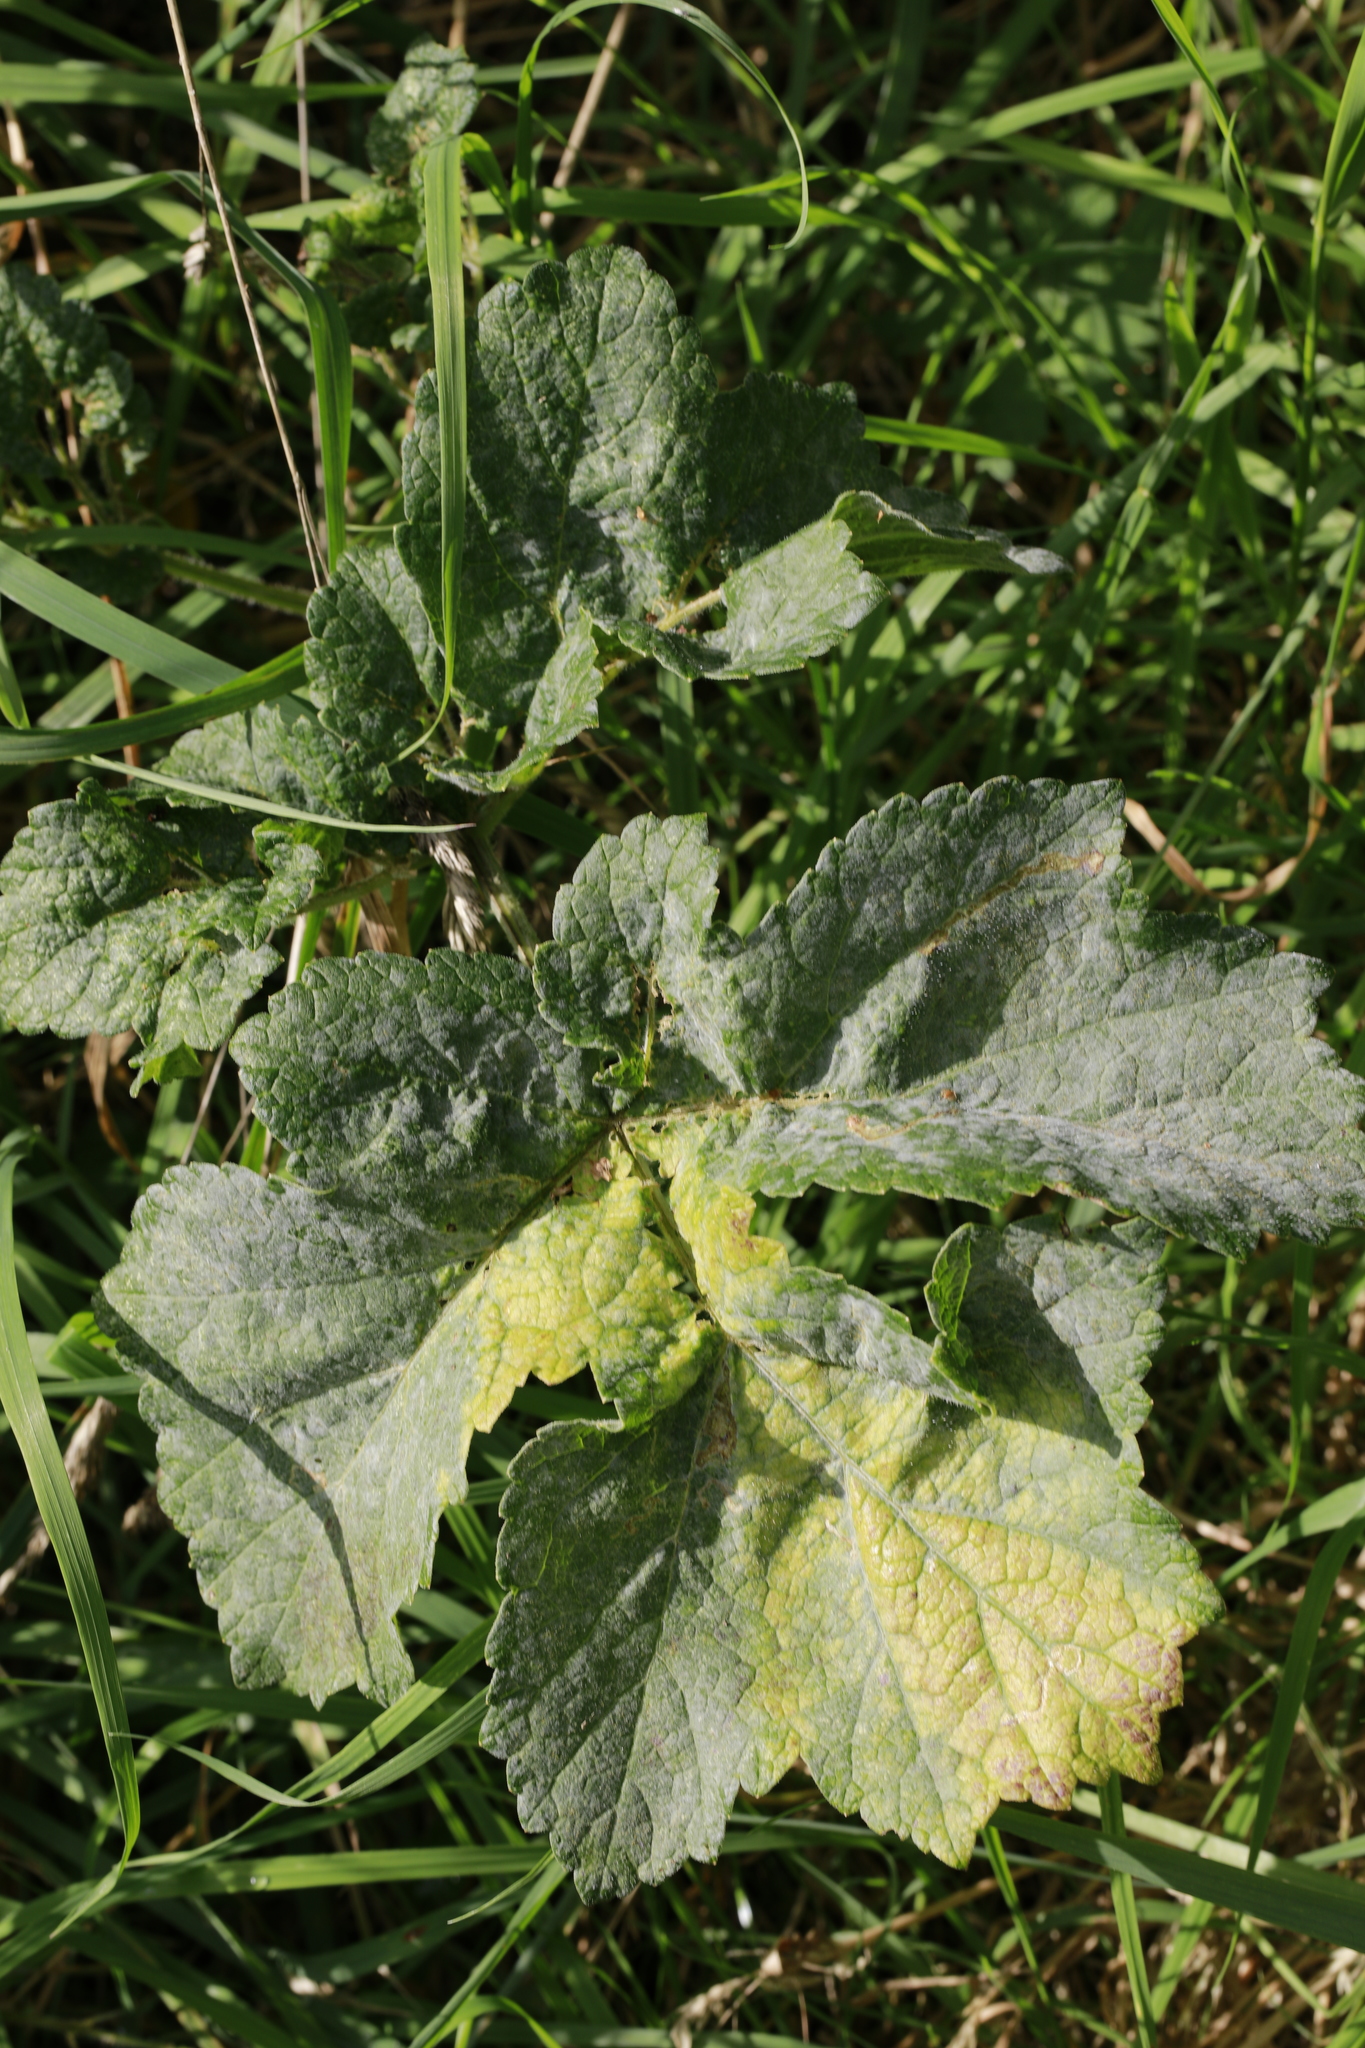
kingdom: Plantae
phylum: Tracheophyta
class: Magnoliopsida
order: Apiales
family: Apiaceae
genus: Heracleum
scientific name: Heracleum sphondylium
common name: Hogweed
